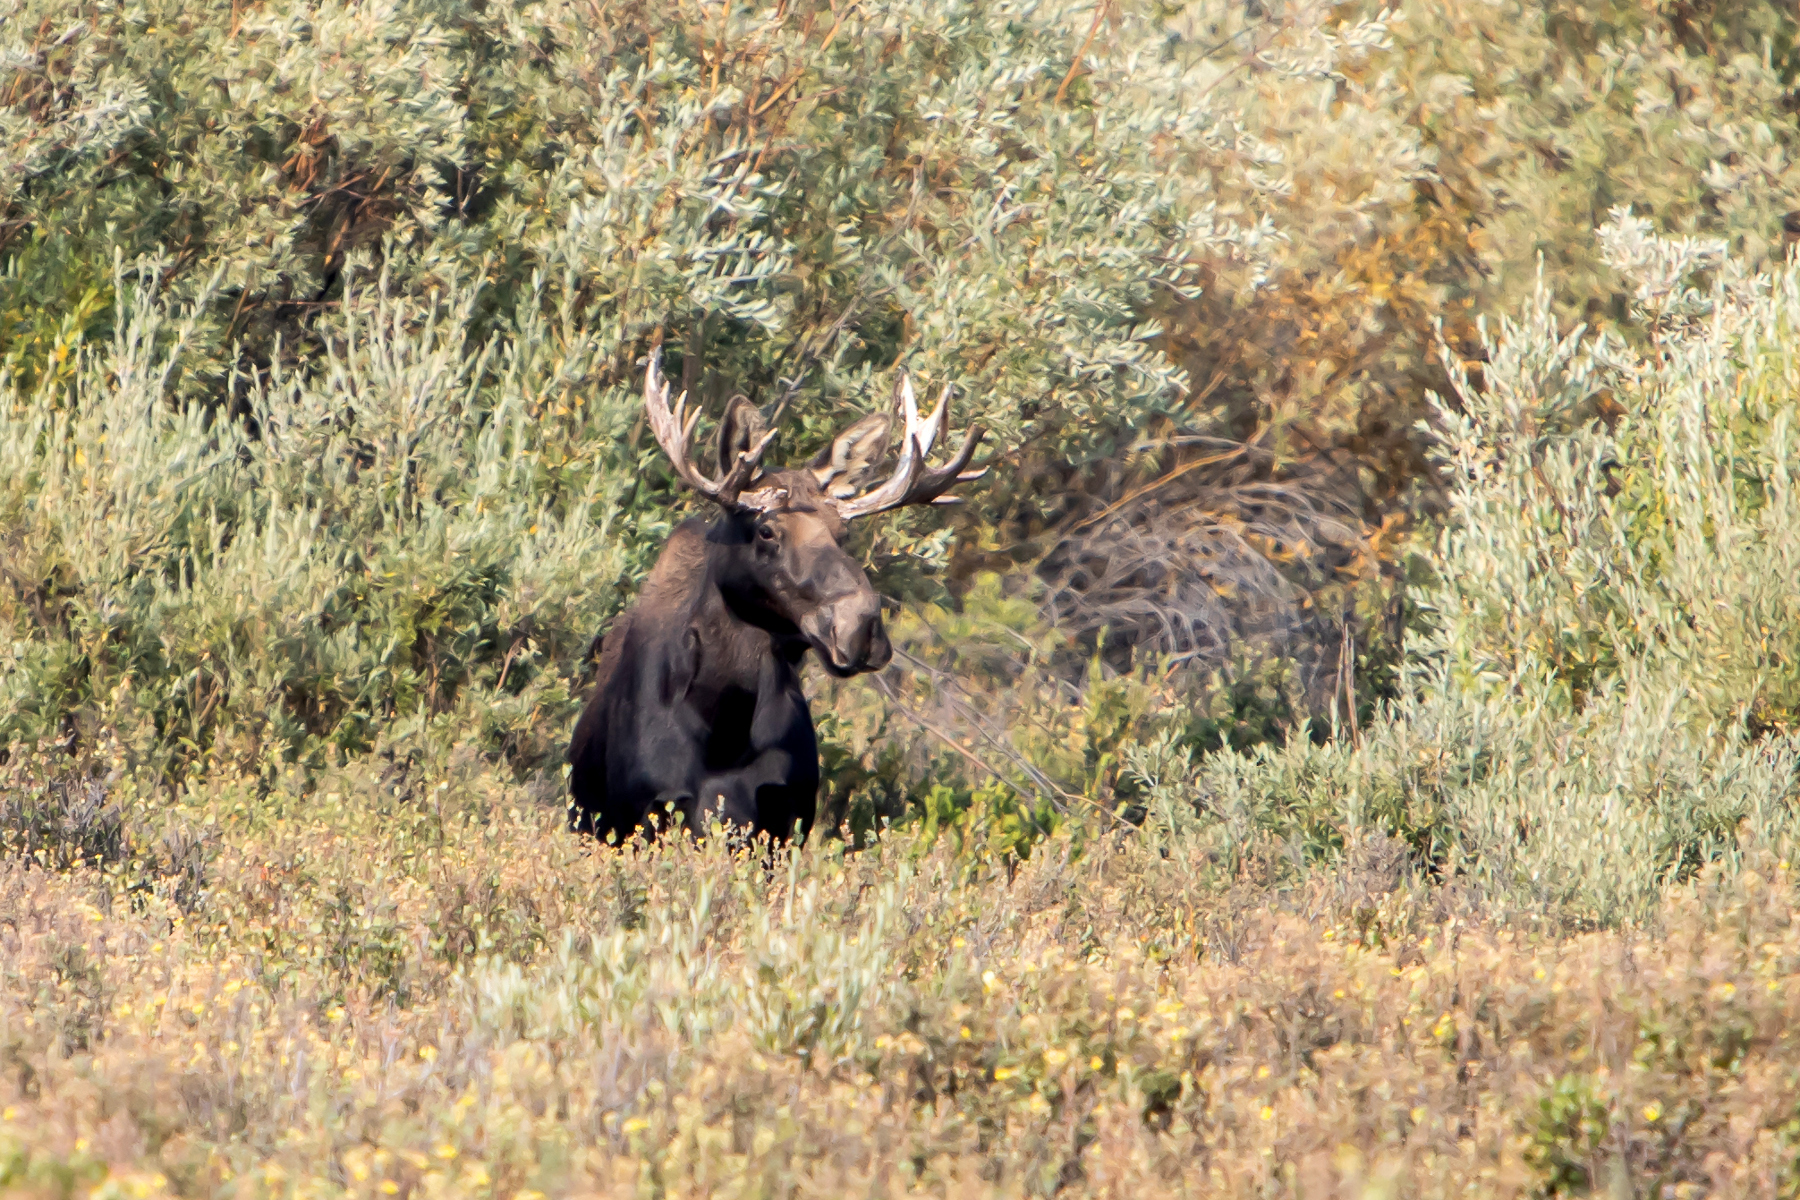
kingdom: Animalia
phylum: Chordata
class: Mammalia
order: Artiodactyla
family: Cervidae
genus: Alces
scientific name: Alces alces
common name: Moose
